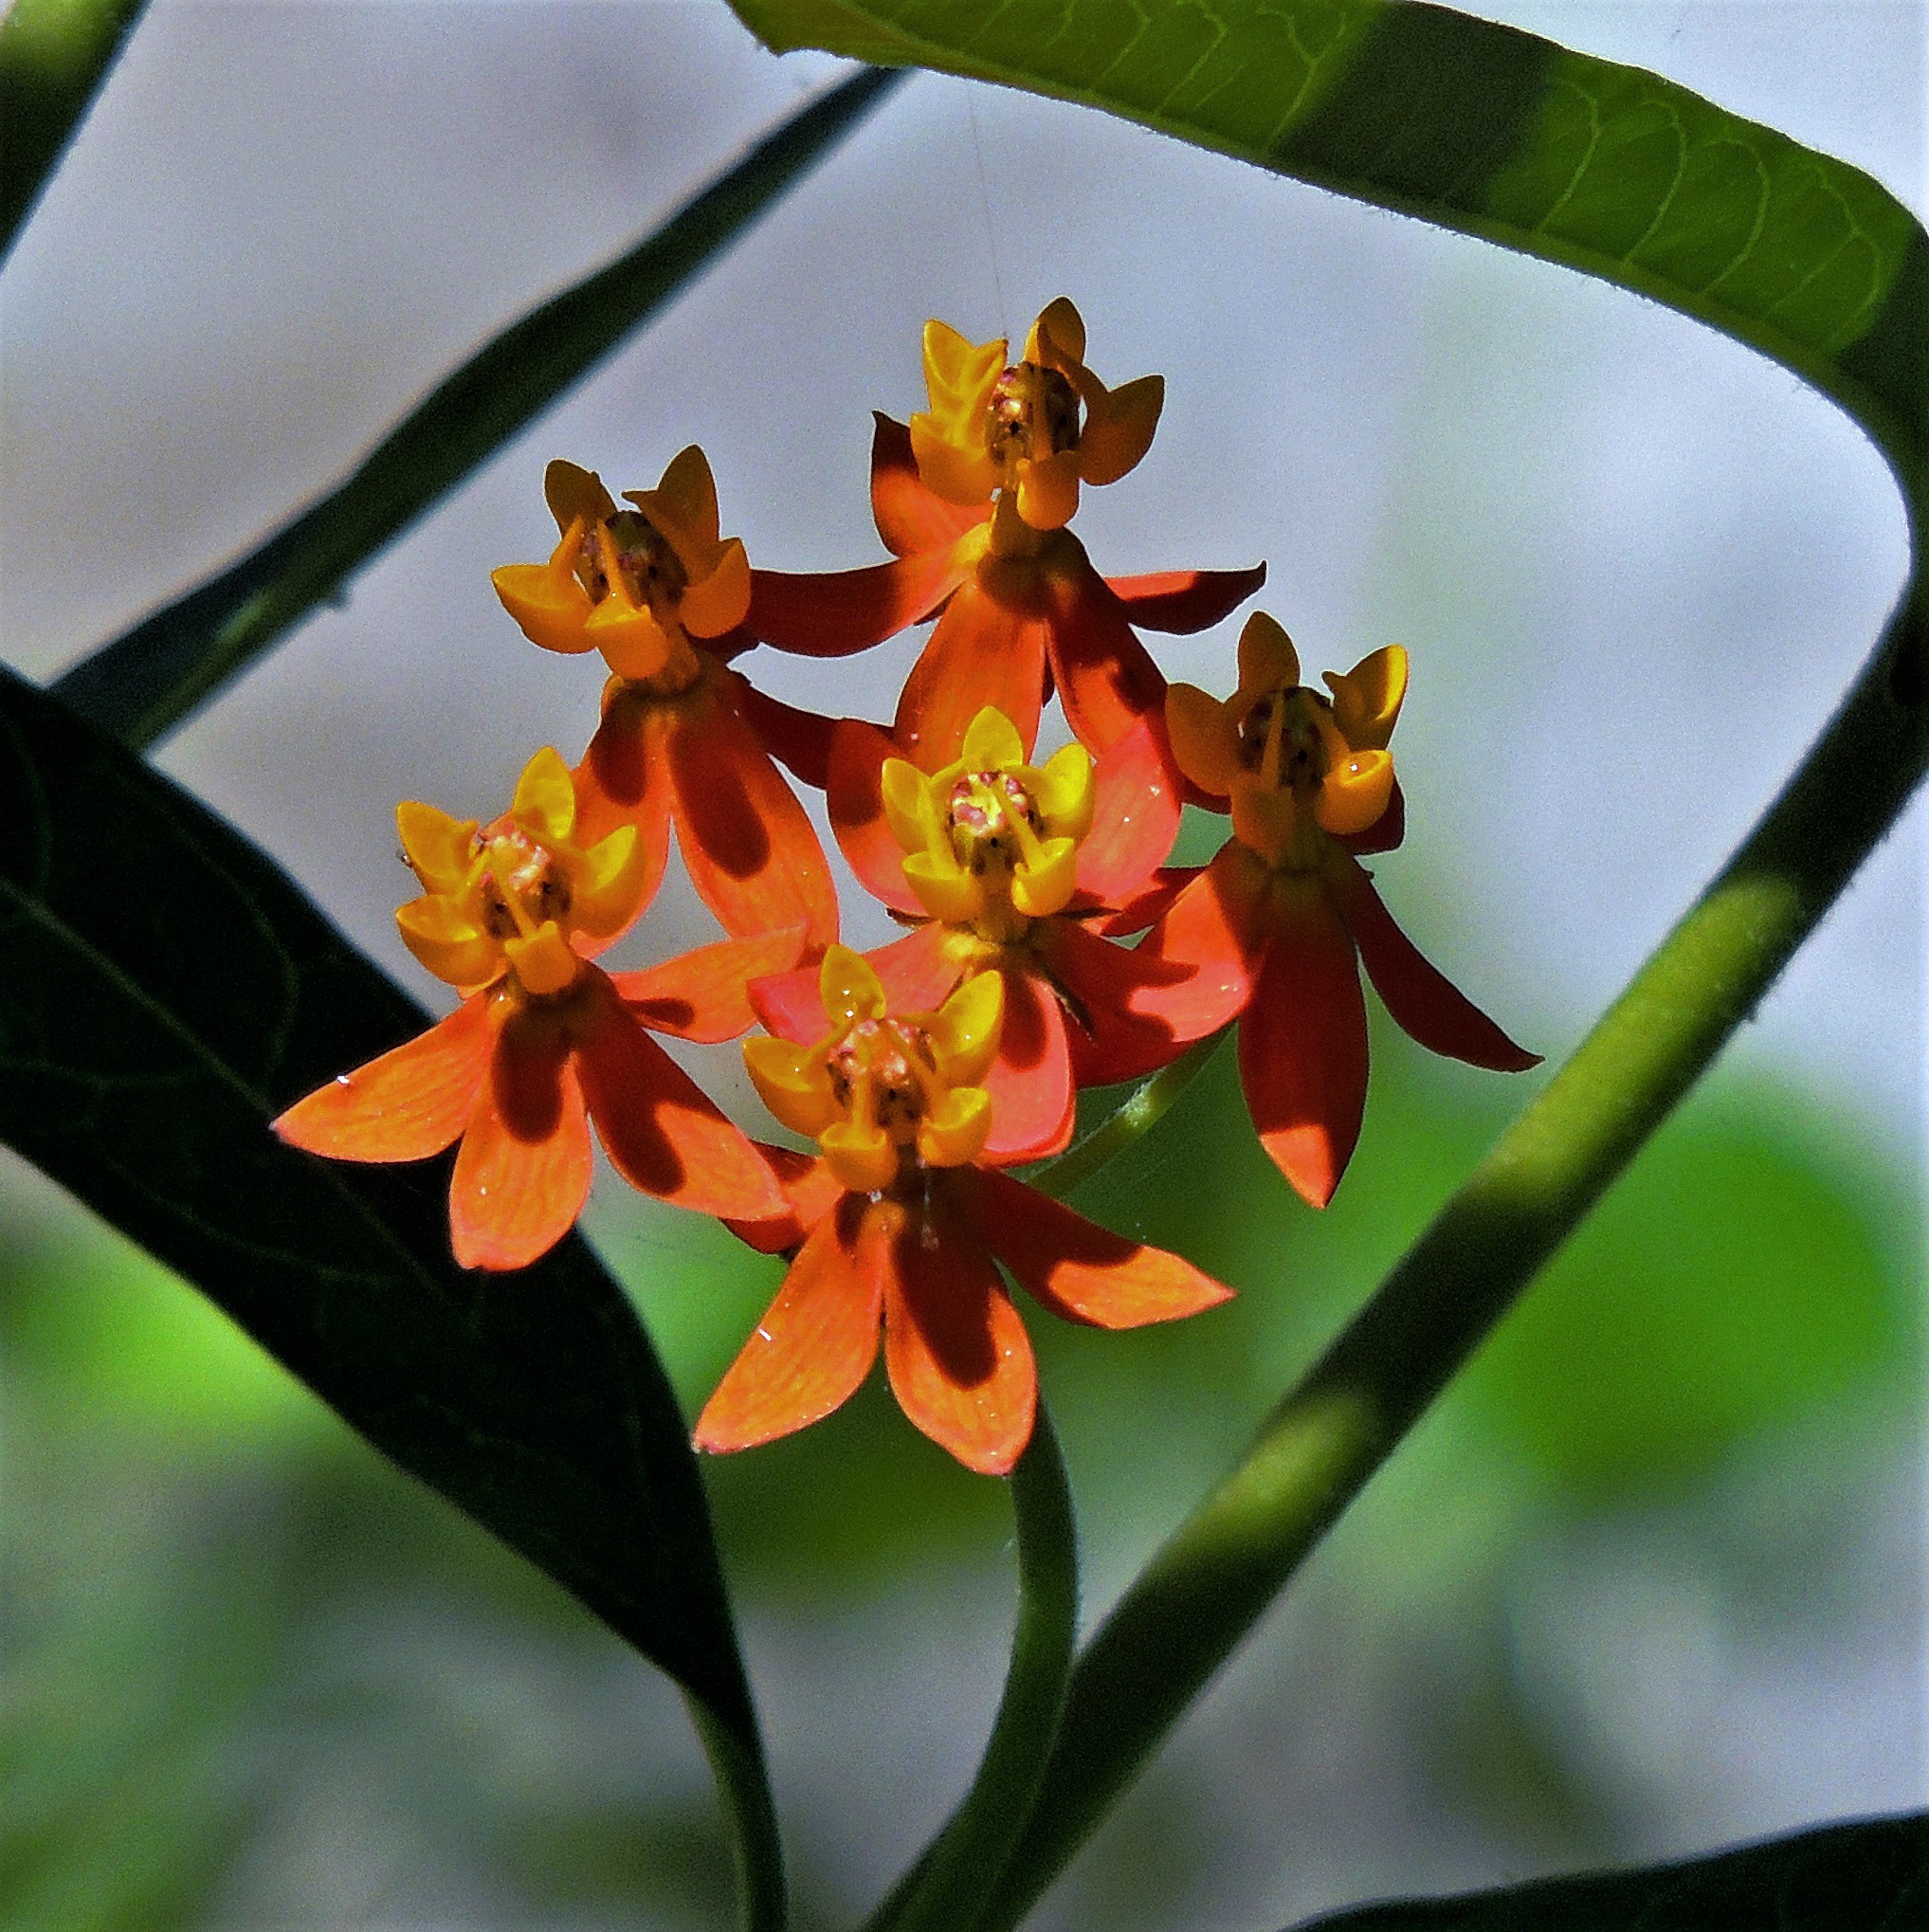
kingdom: Plantae
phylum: Tracheophyta
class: Magnoliopsida
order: Gentianales
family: Apocynaceae
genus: Asclepias
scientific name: Asclepias curassavica
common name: Bloodflower
